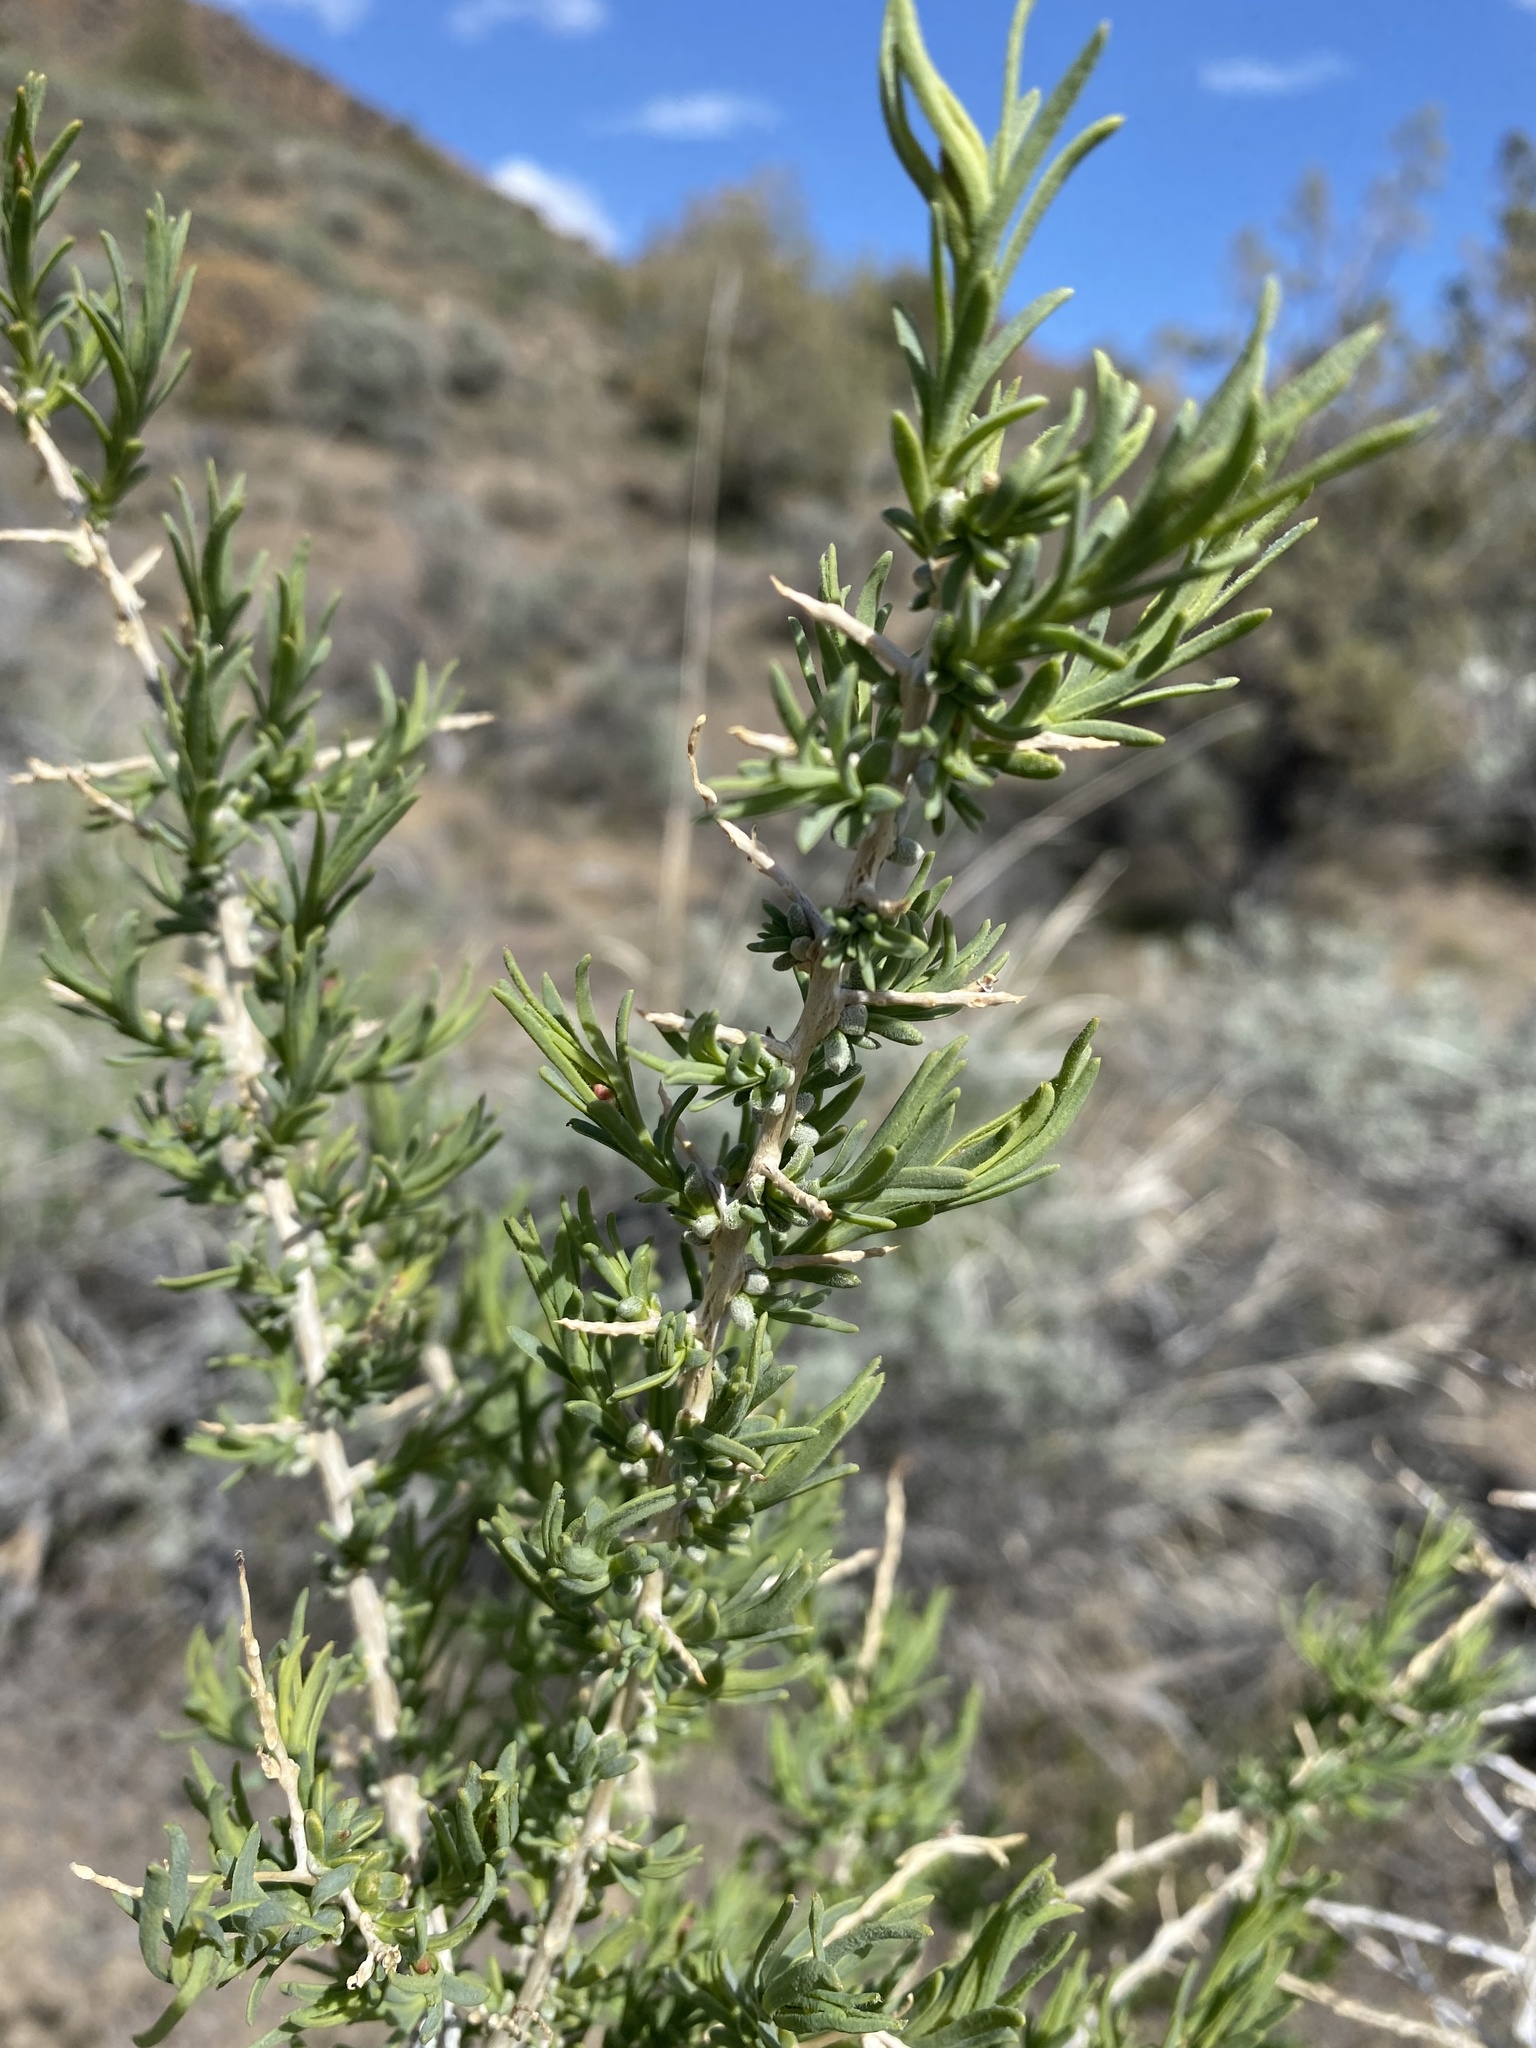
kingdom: Plantae
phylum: Tracheophyta
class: Magnoliopsida
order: Caryophyllales
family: Sarcobataceae
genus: Sarcobatus
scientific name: Sarcobatus vermiculatus
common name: Greasewood
